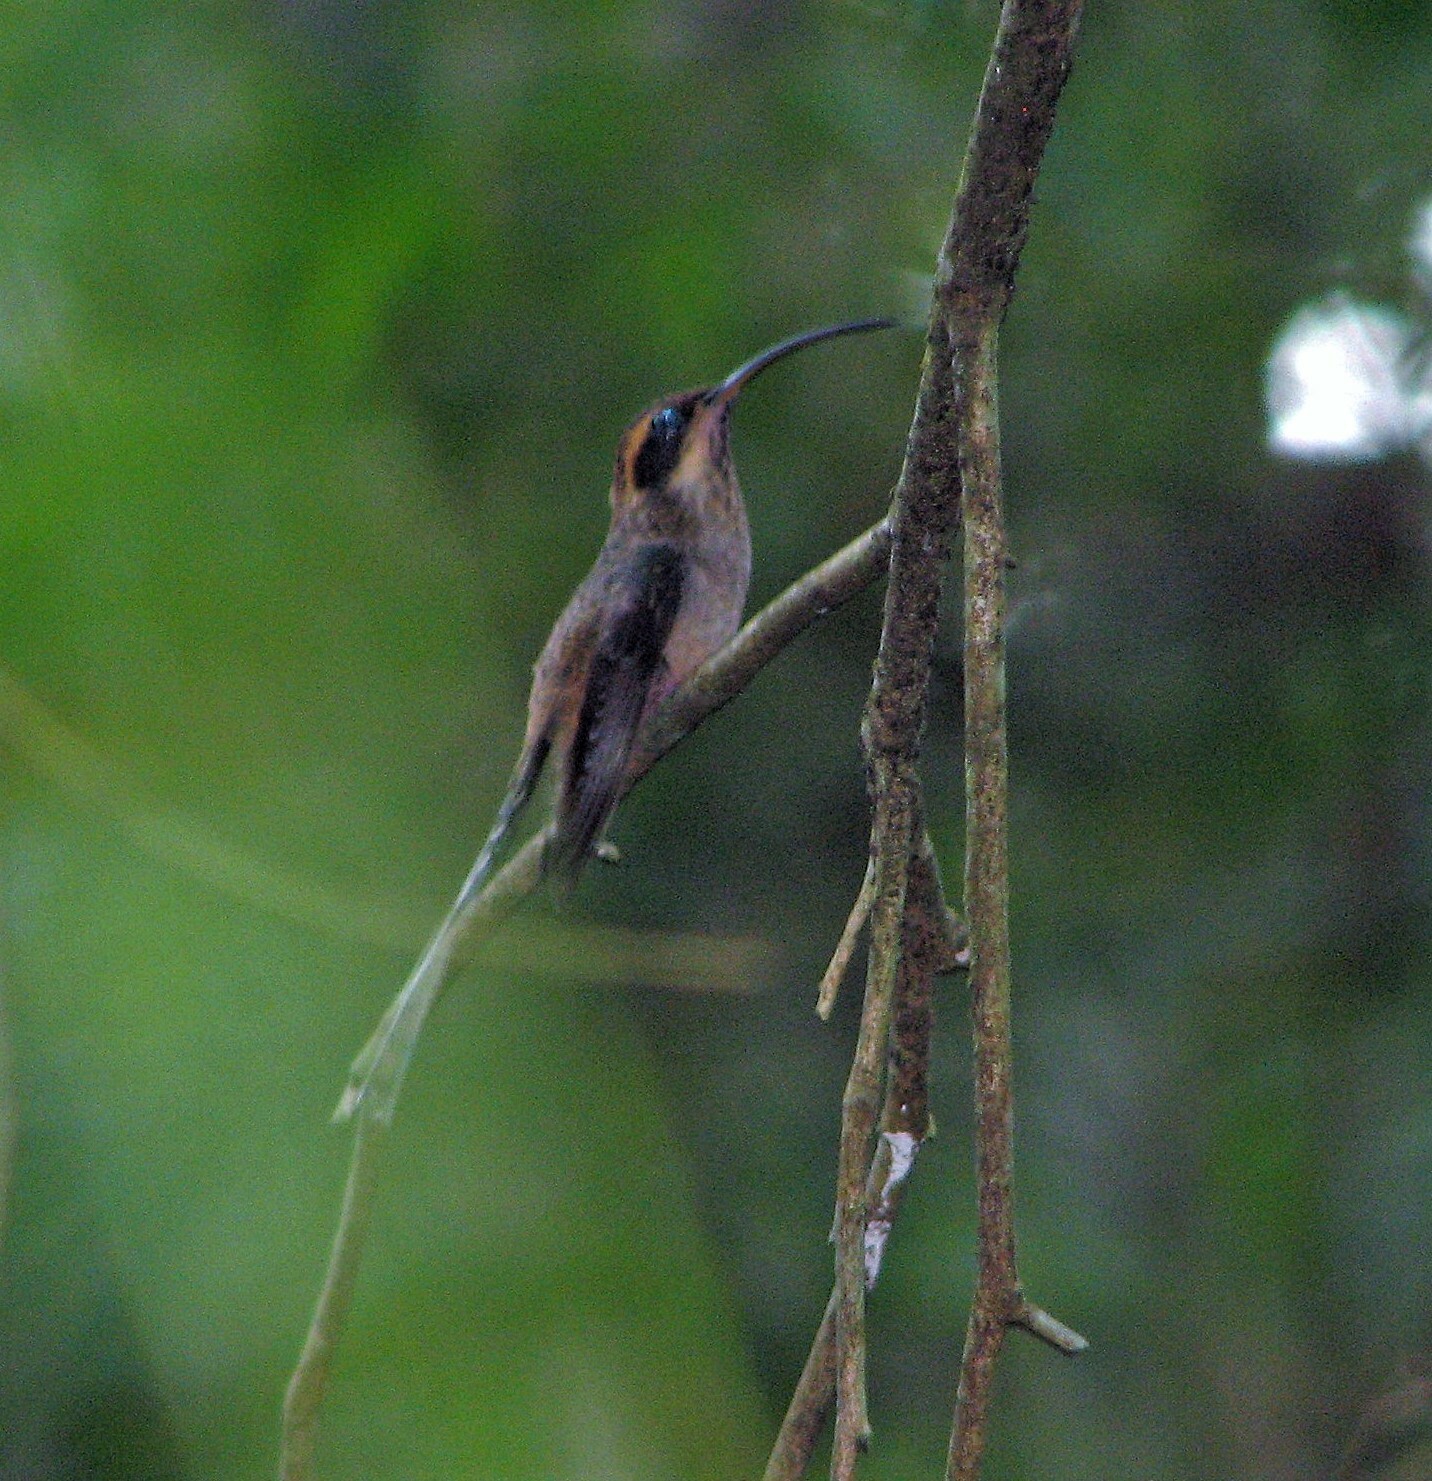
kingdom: Animalia
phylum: Chordata
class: Aves
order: Apodiformes
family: Trochilidae
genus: Phaethornis
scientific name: Phaethornis eurynome
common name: Scale-throated hermit
